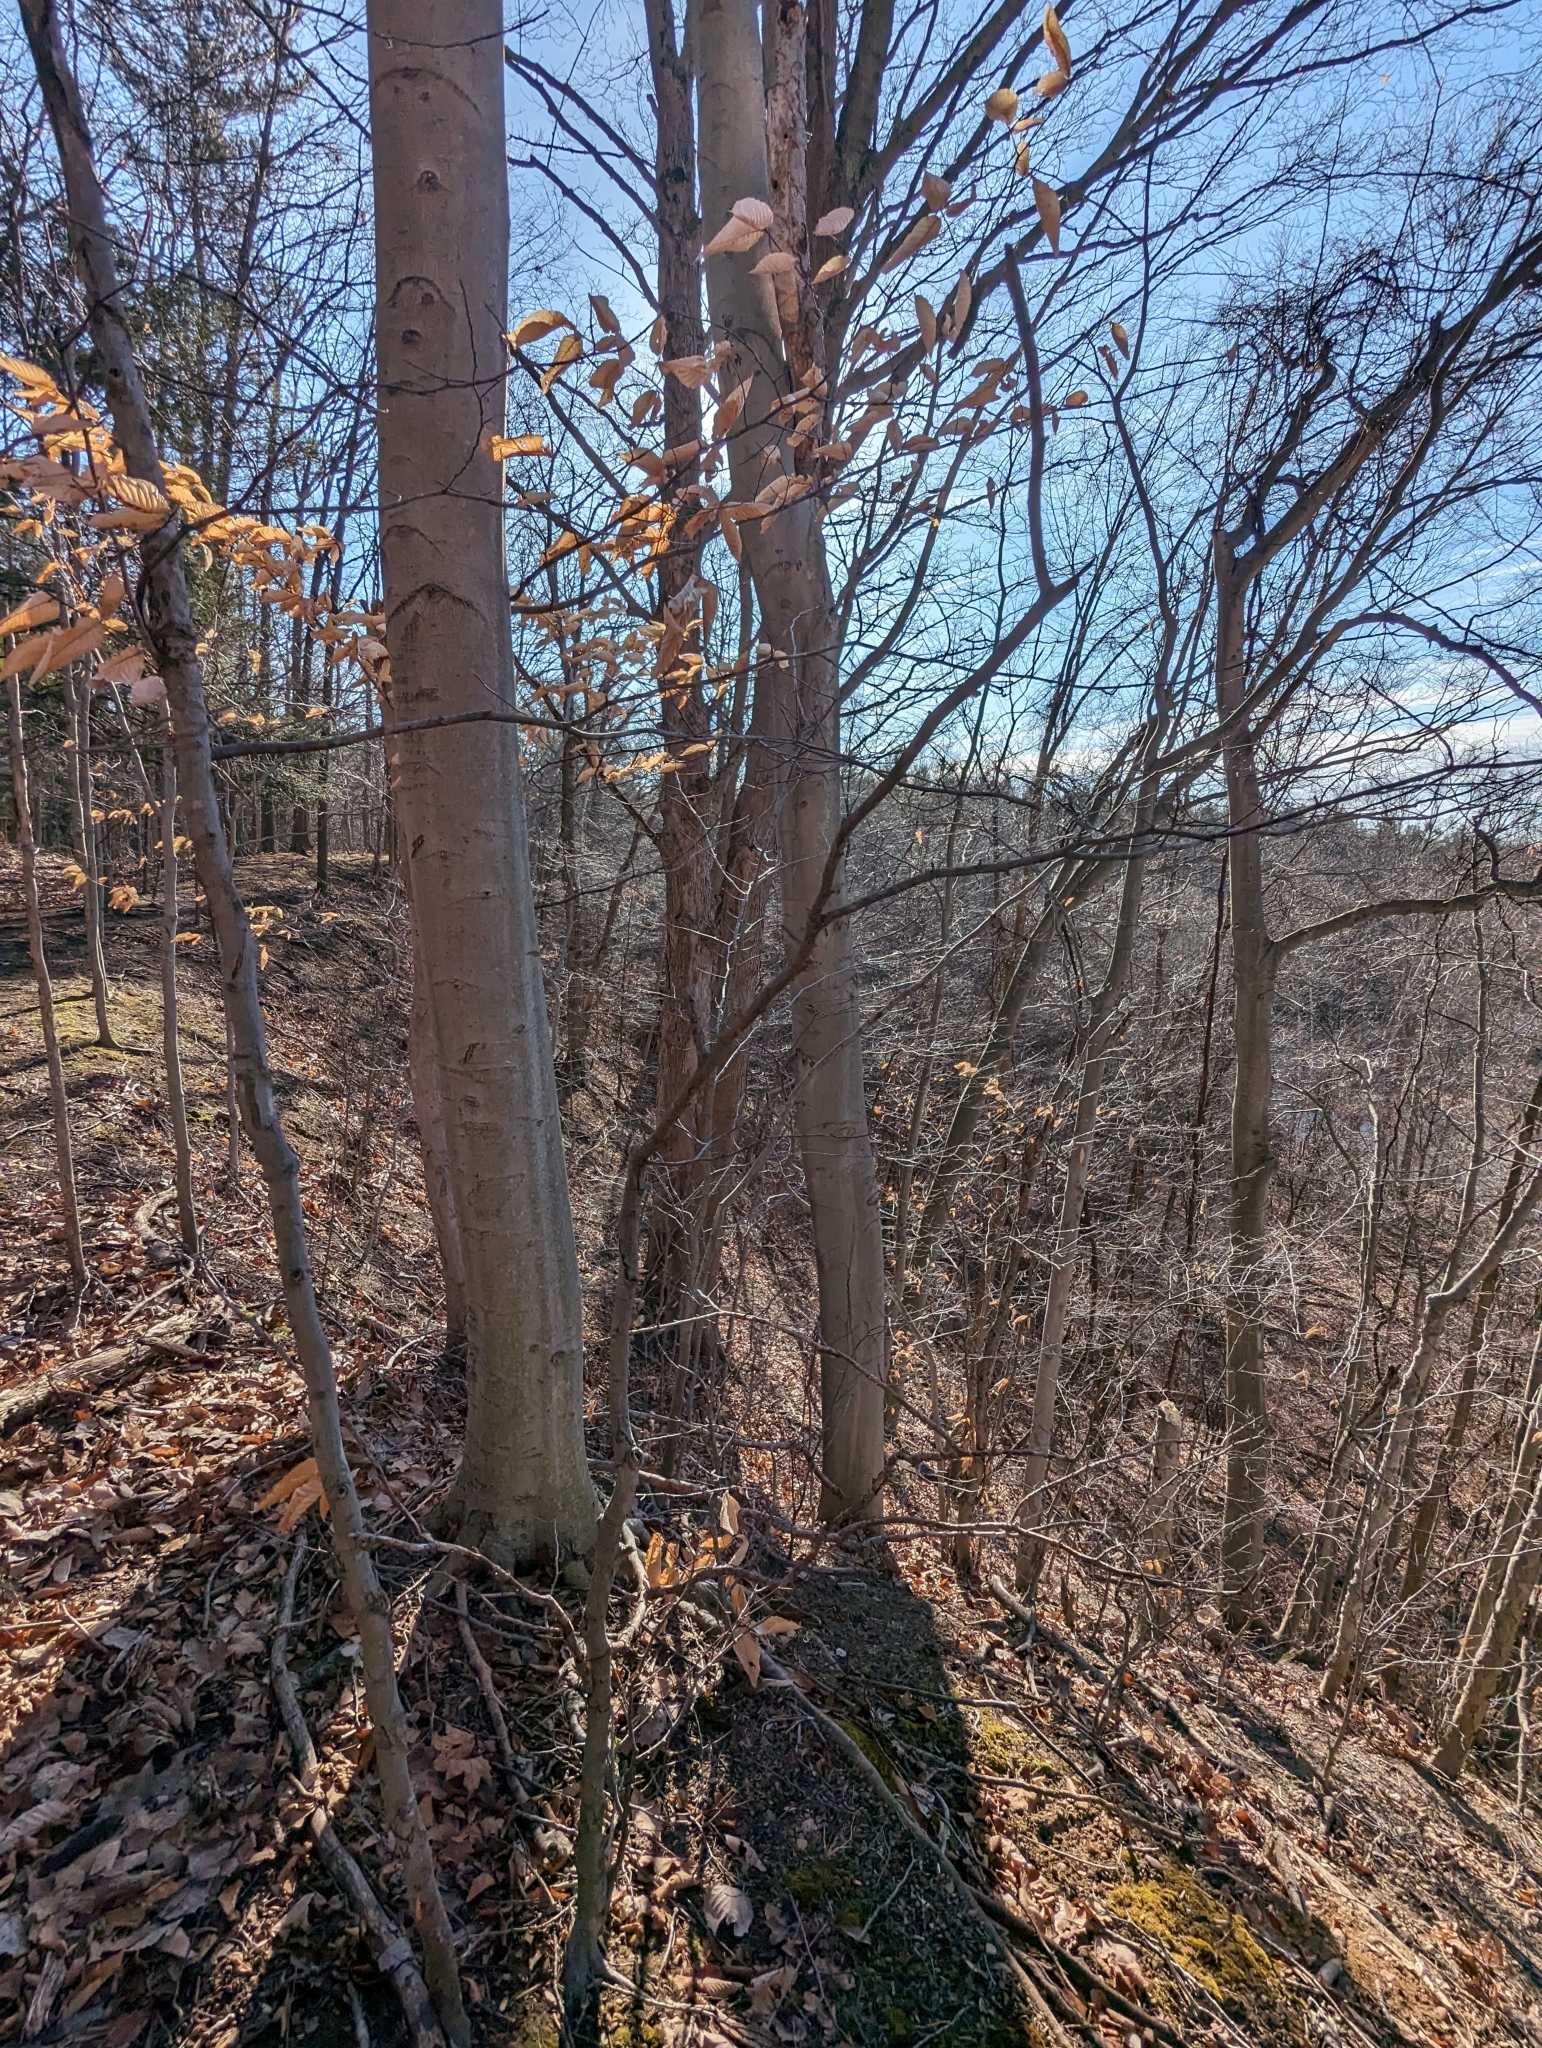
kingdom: Plantae
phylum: Tracheophyta
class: Magnoliopsida
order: Fagales
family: Fagaceae
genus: Fagus
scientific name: Fagus grandifolia
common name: American beech
